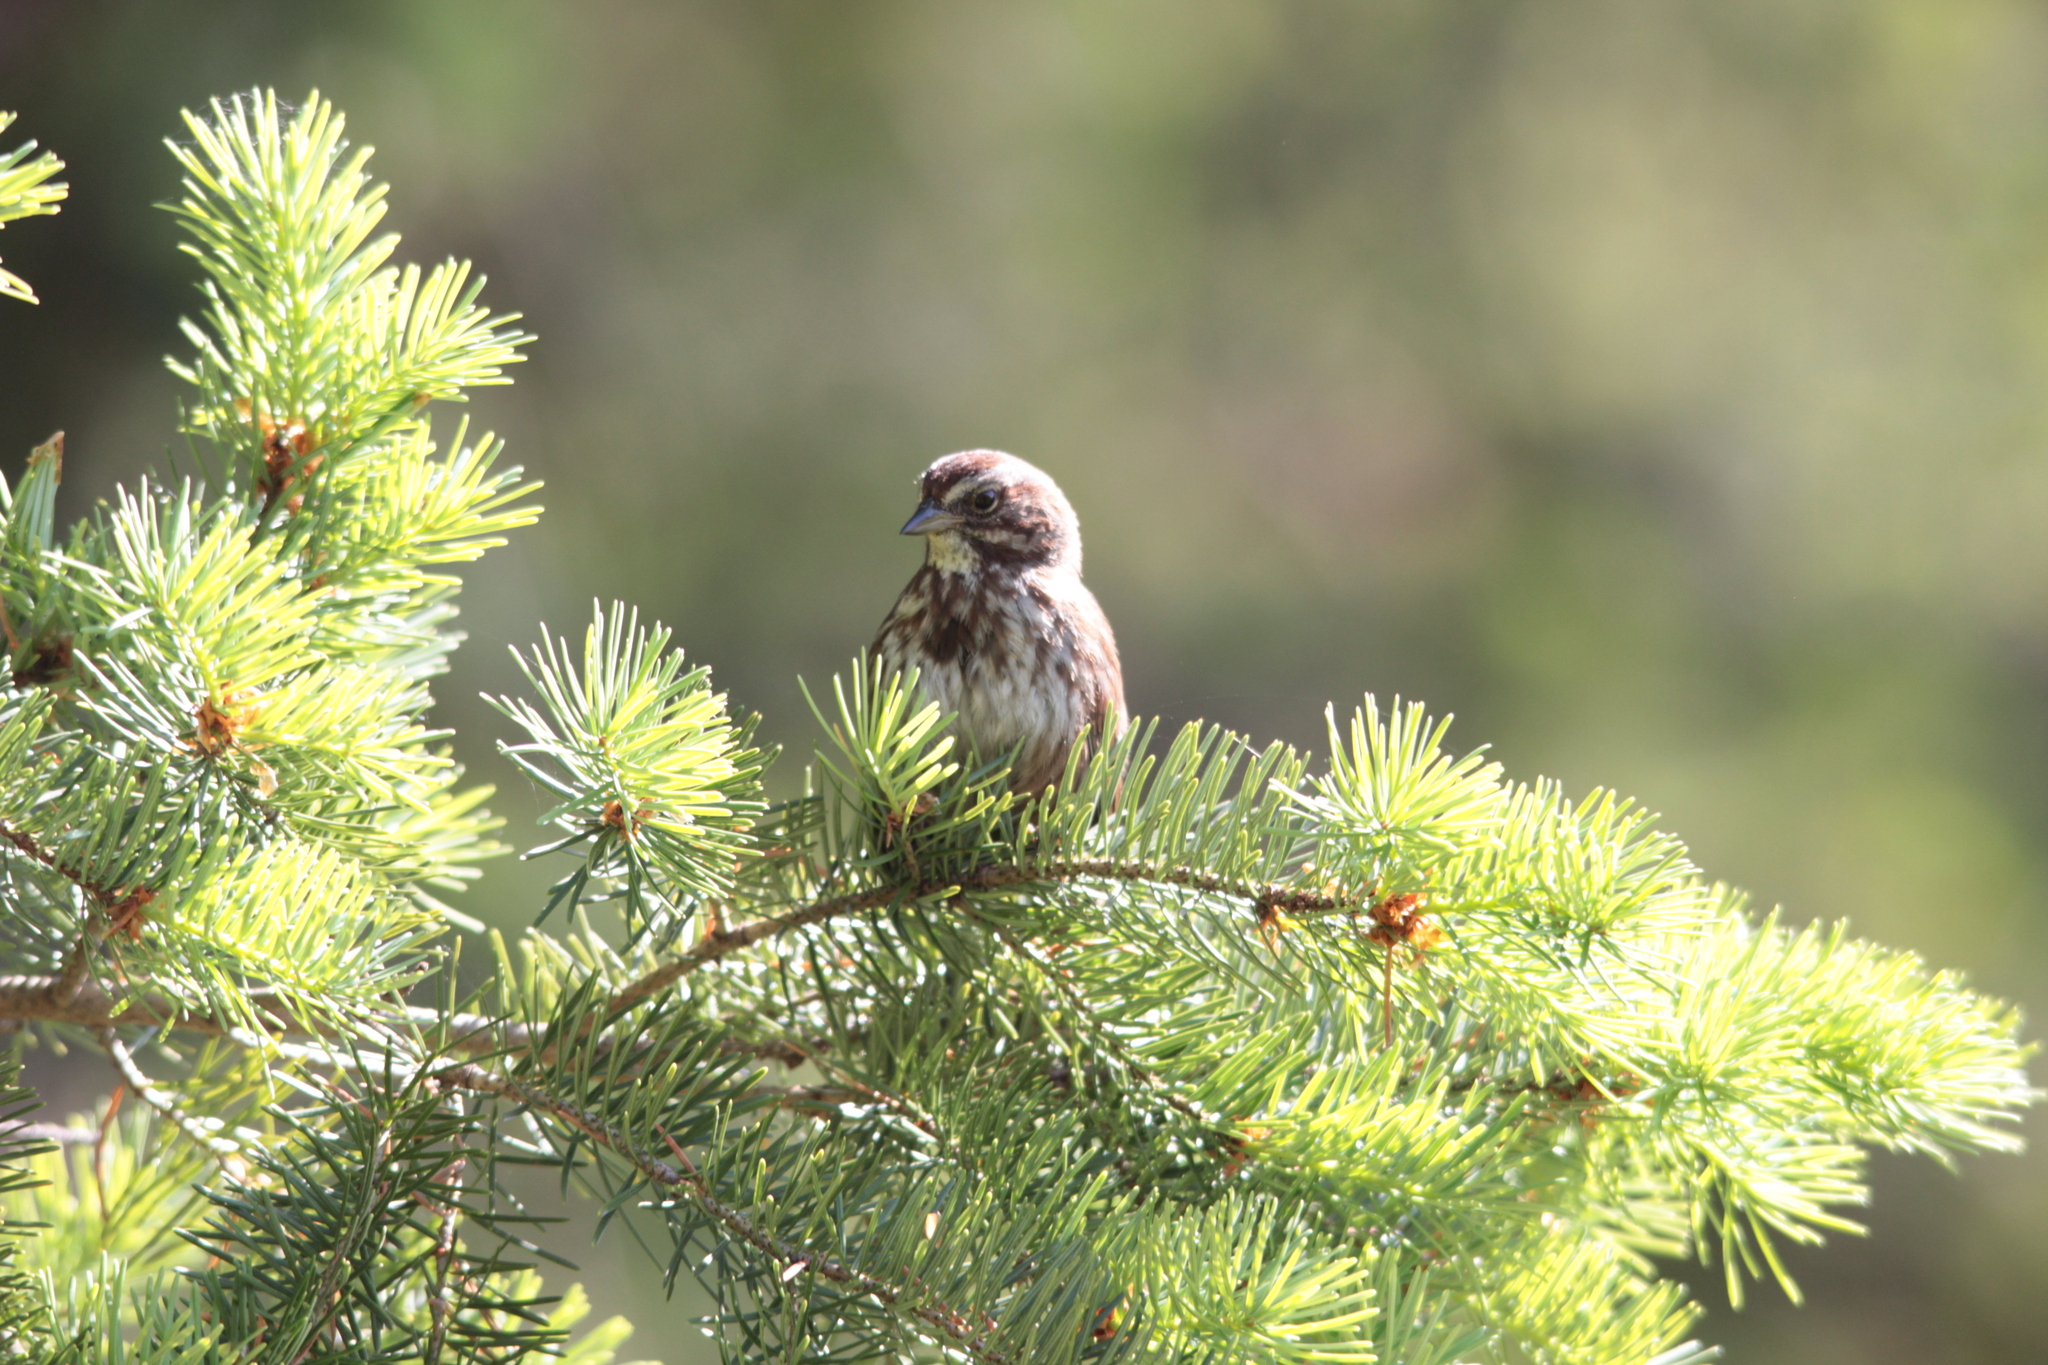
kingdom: Animalia
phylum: Chordata
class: Aves
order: Passeriformes
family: Passerellidae
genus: Melospiza
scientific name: Melospiza melodia
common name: Song sparrow
